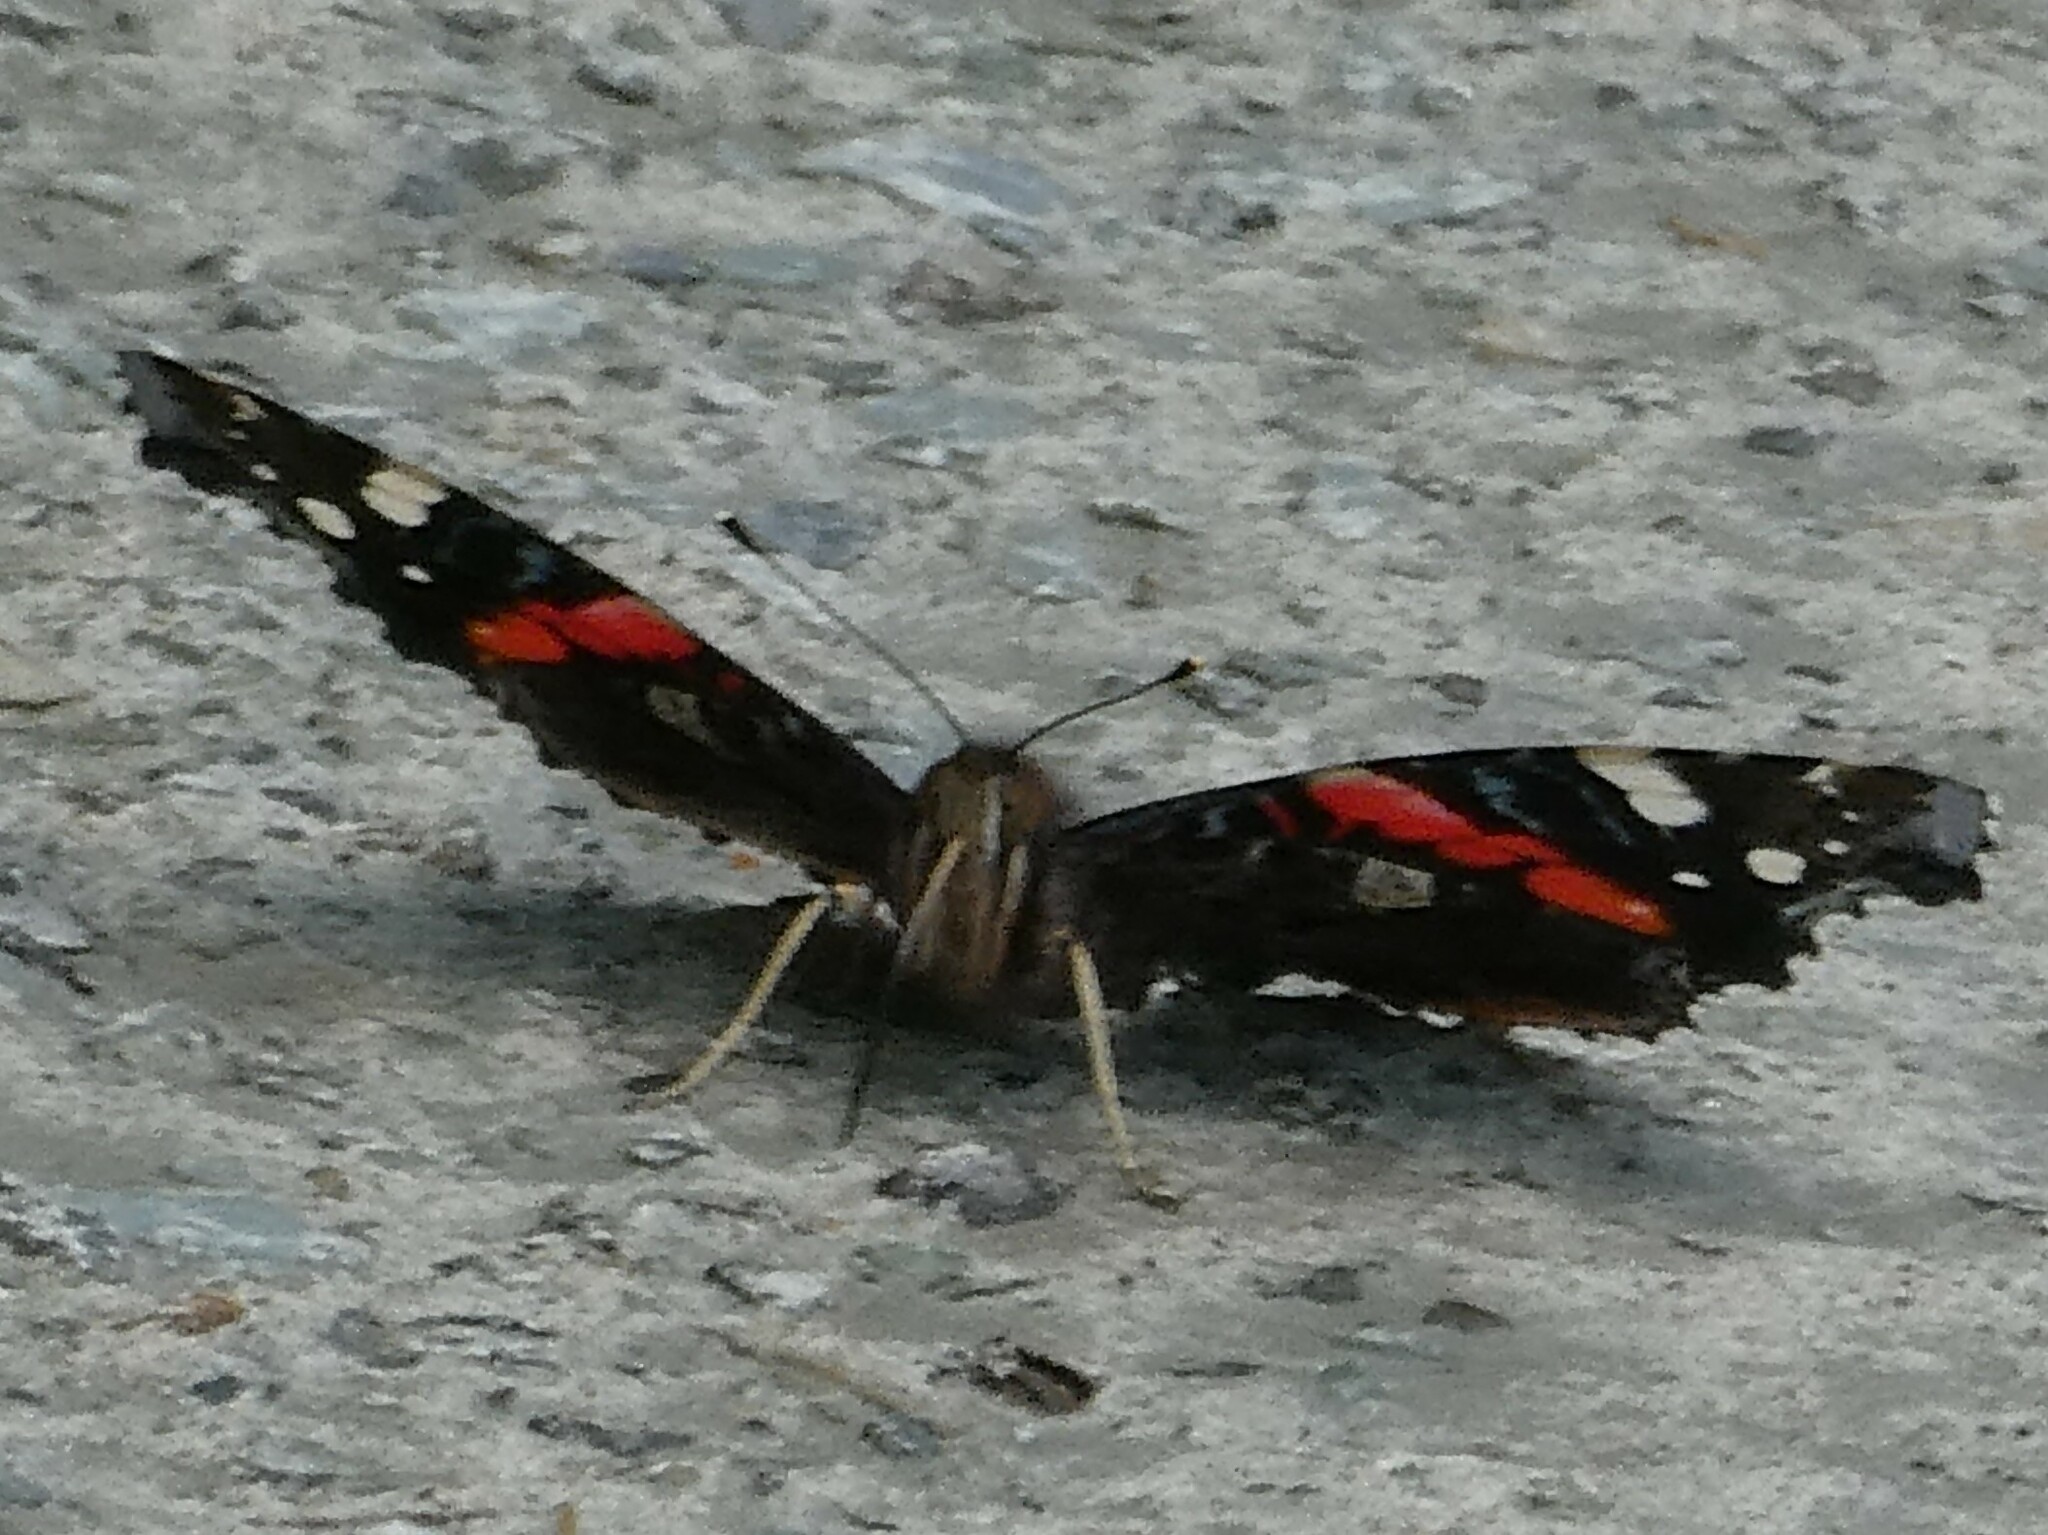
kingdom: Animalia
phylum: Arthropoda
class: Insecta
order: Lepidoptera
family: Nymphalidae
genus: Vanessa
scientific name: Vanessa atalanta
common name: Red admiral
